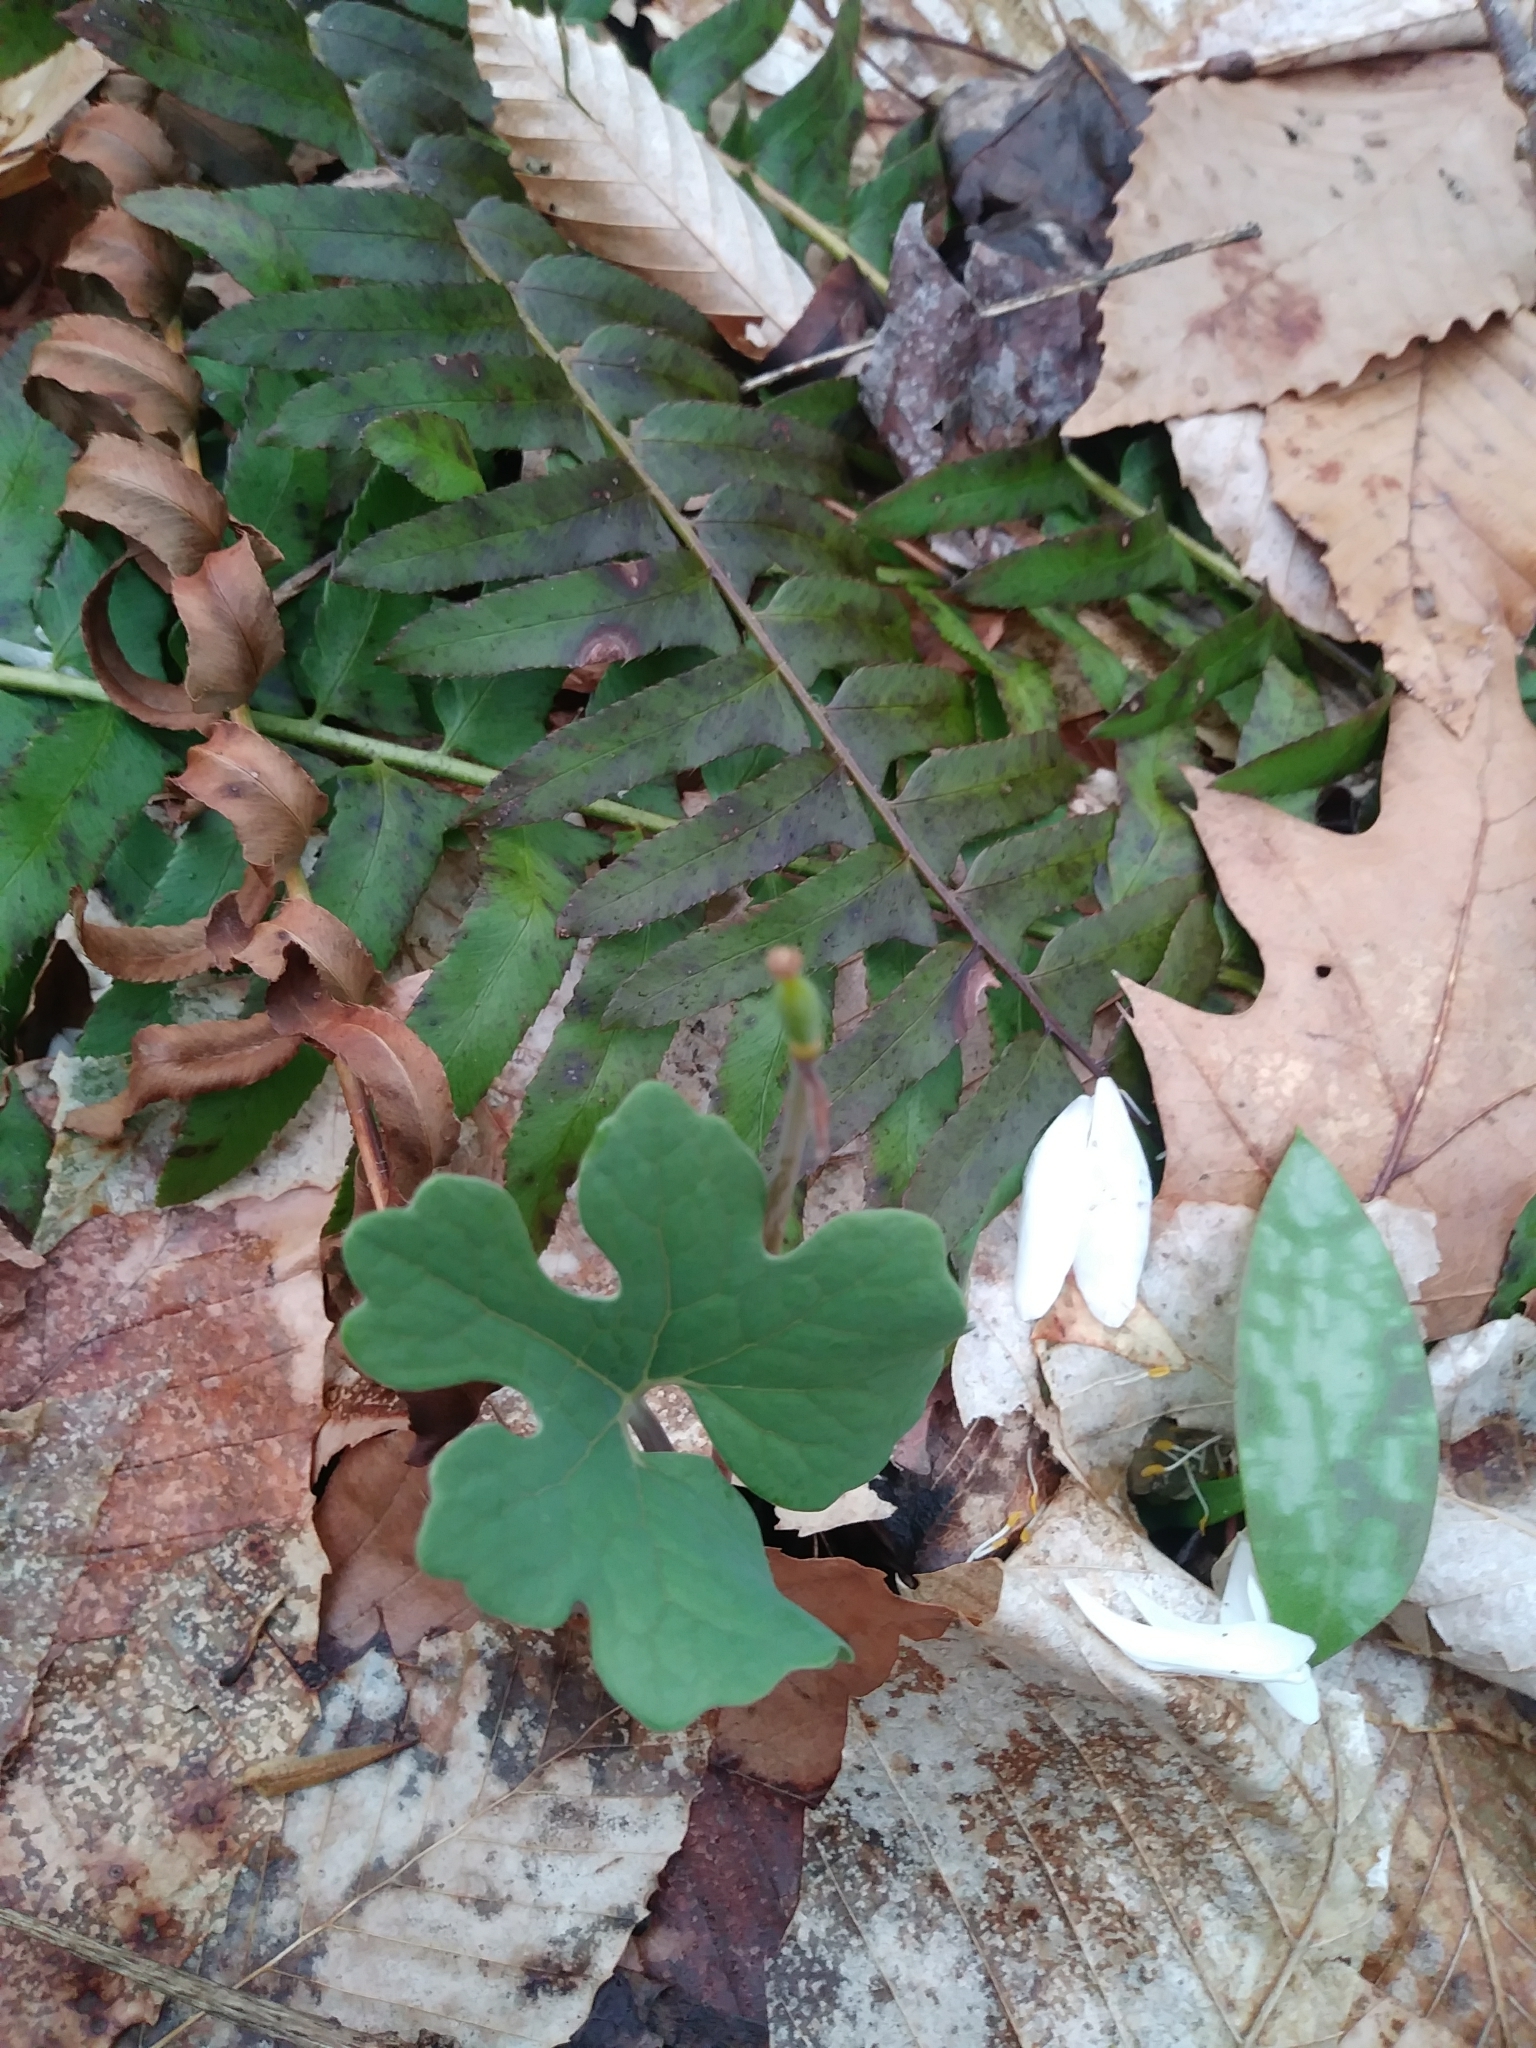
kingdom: Plantae
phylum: Tracheophyta
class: Magnoliopsida
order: Ranunculales
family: Papaveraceae
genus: Sanguinaria
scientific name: Sanguinaria canadensis
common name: Bloodroot
